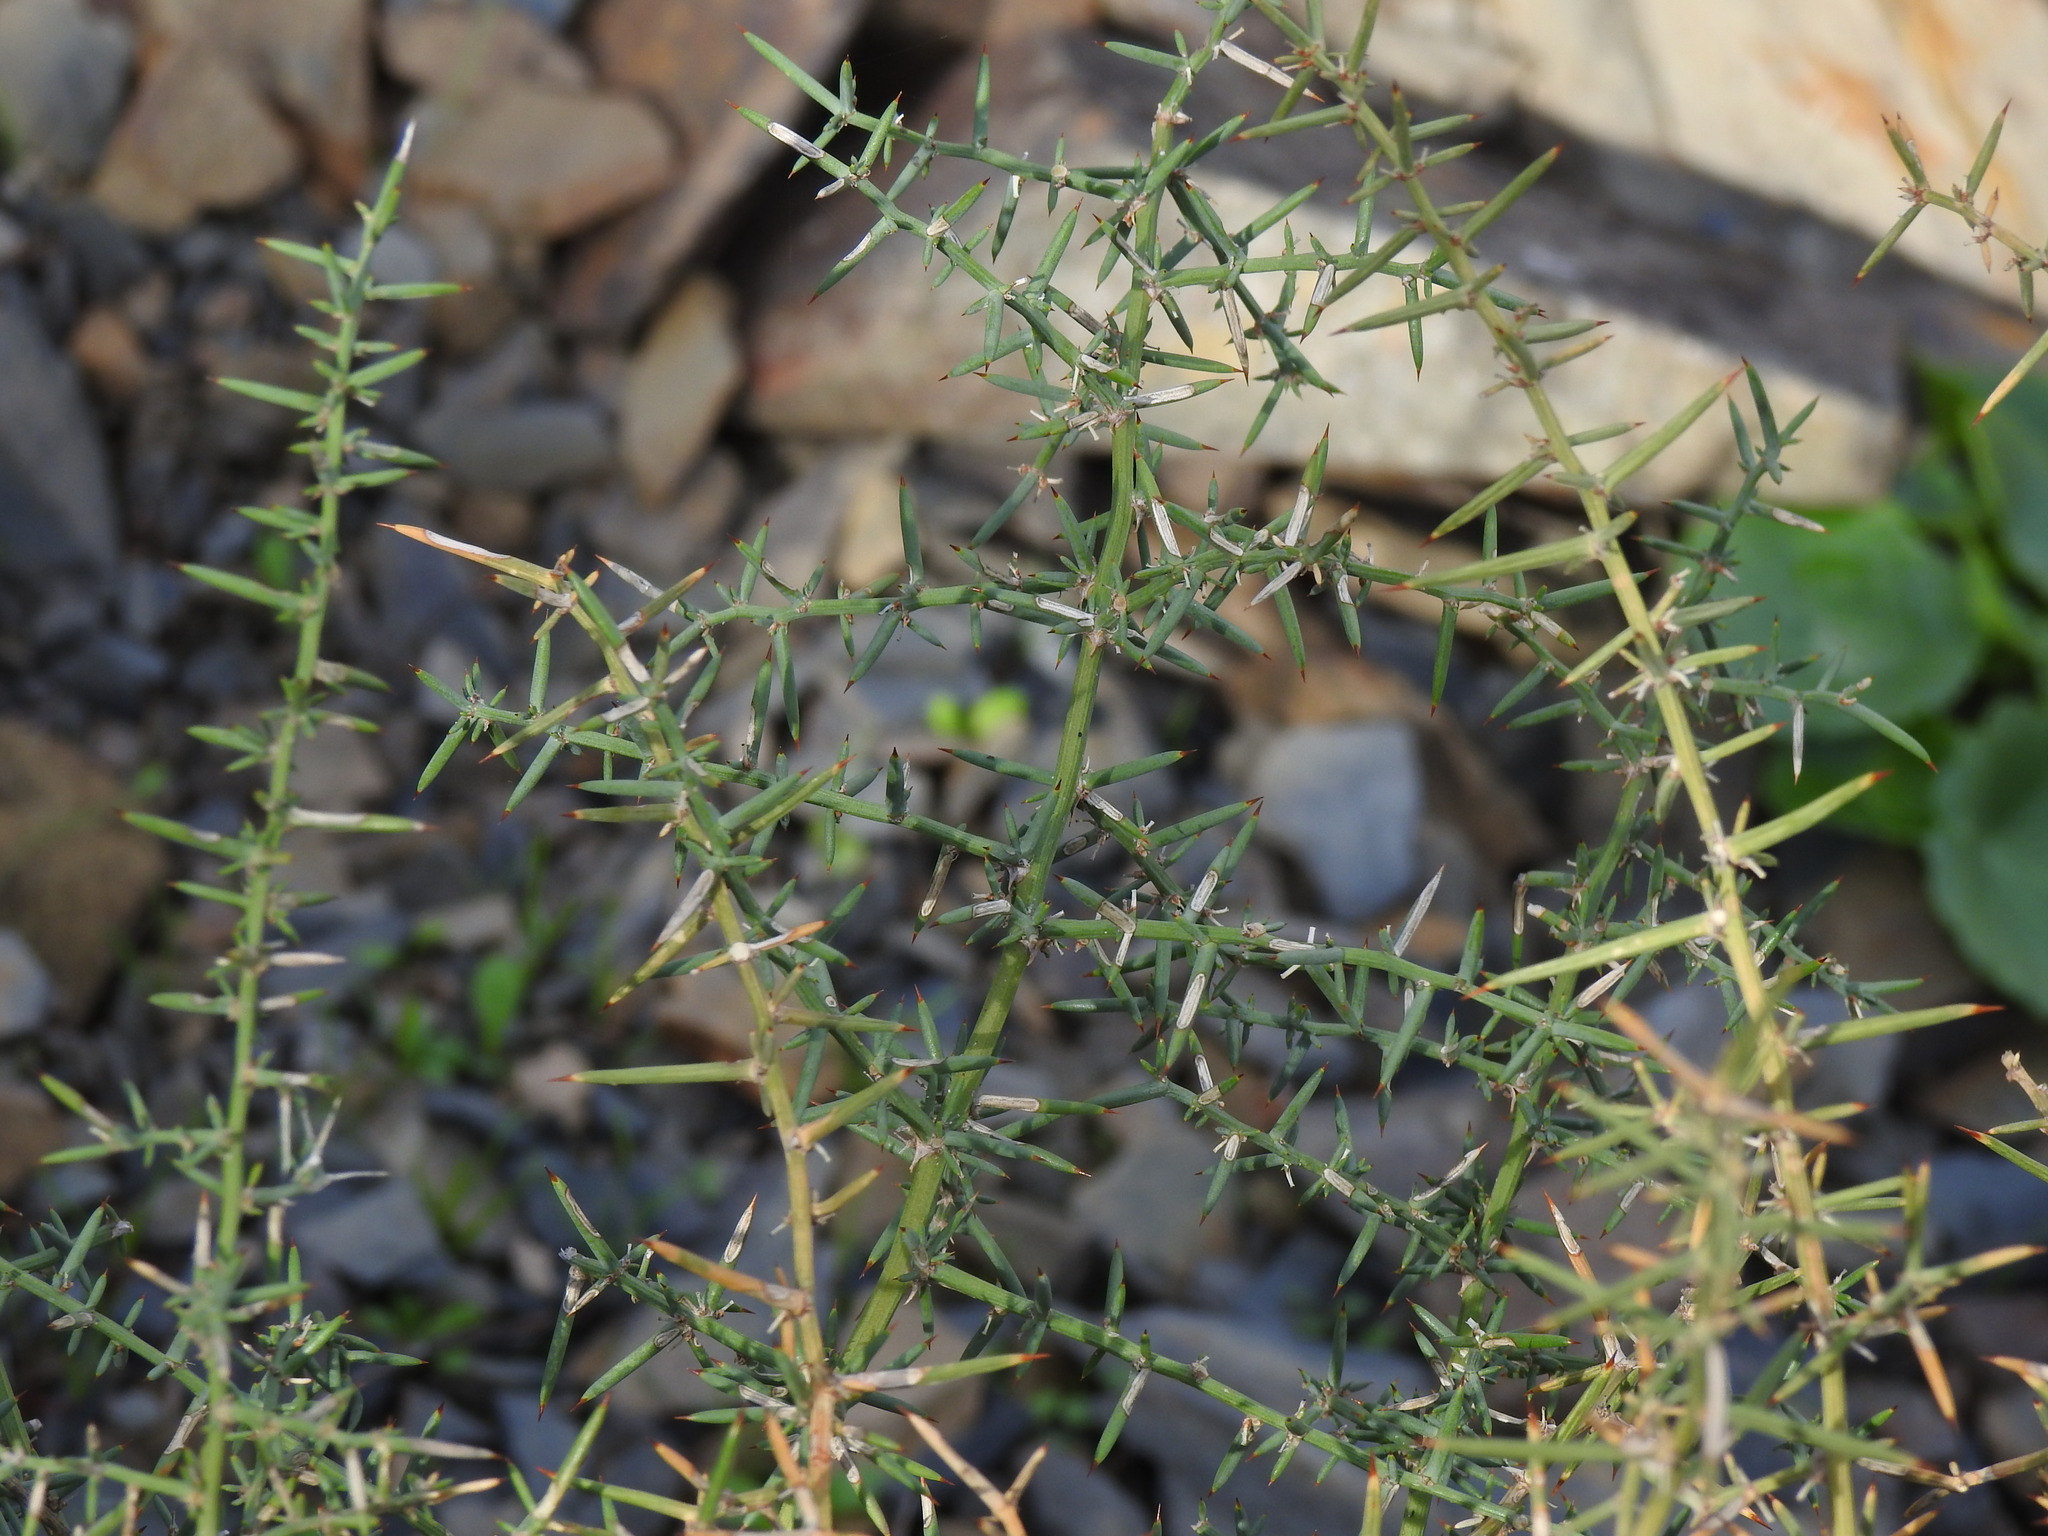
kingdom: Plantae
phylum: Tracheophyta
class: Liliopsida
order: Asparagales
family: Asparagaceae
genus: Asparagus
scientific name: Asparagus aphyllus
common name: Mediterranean asparagus
